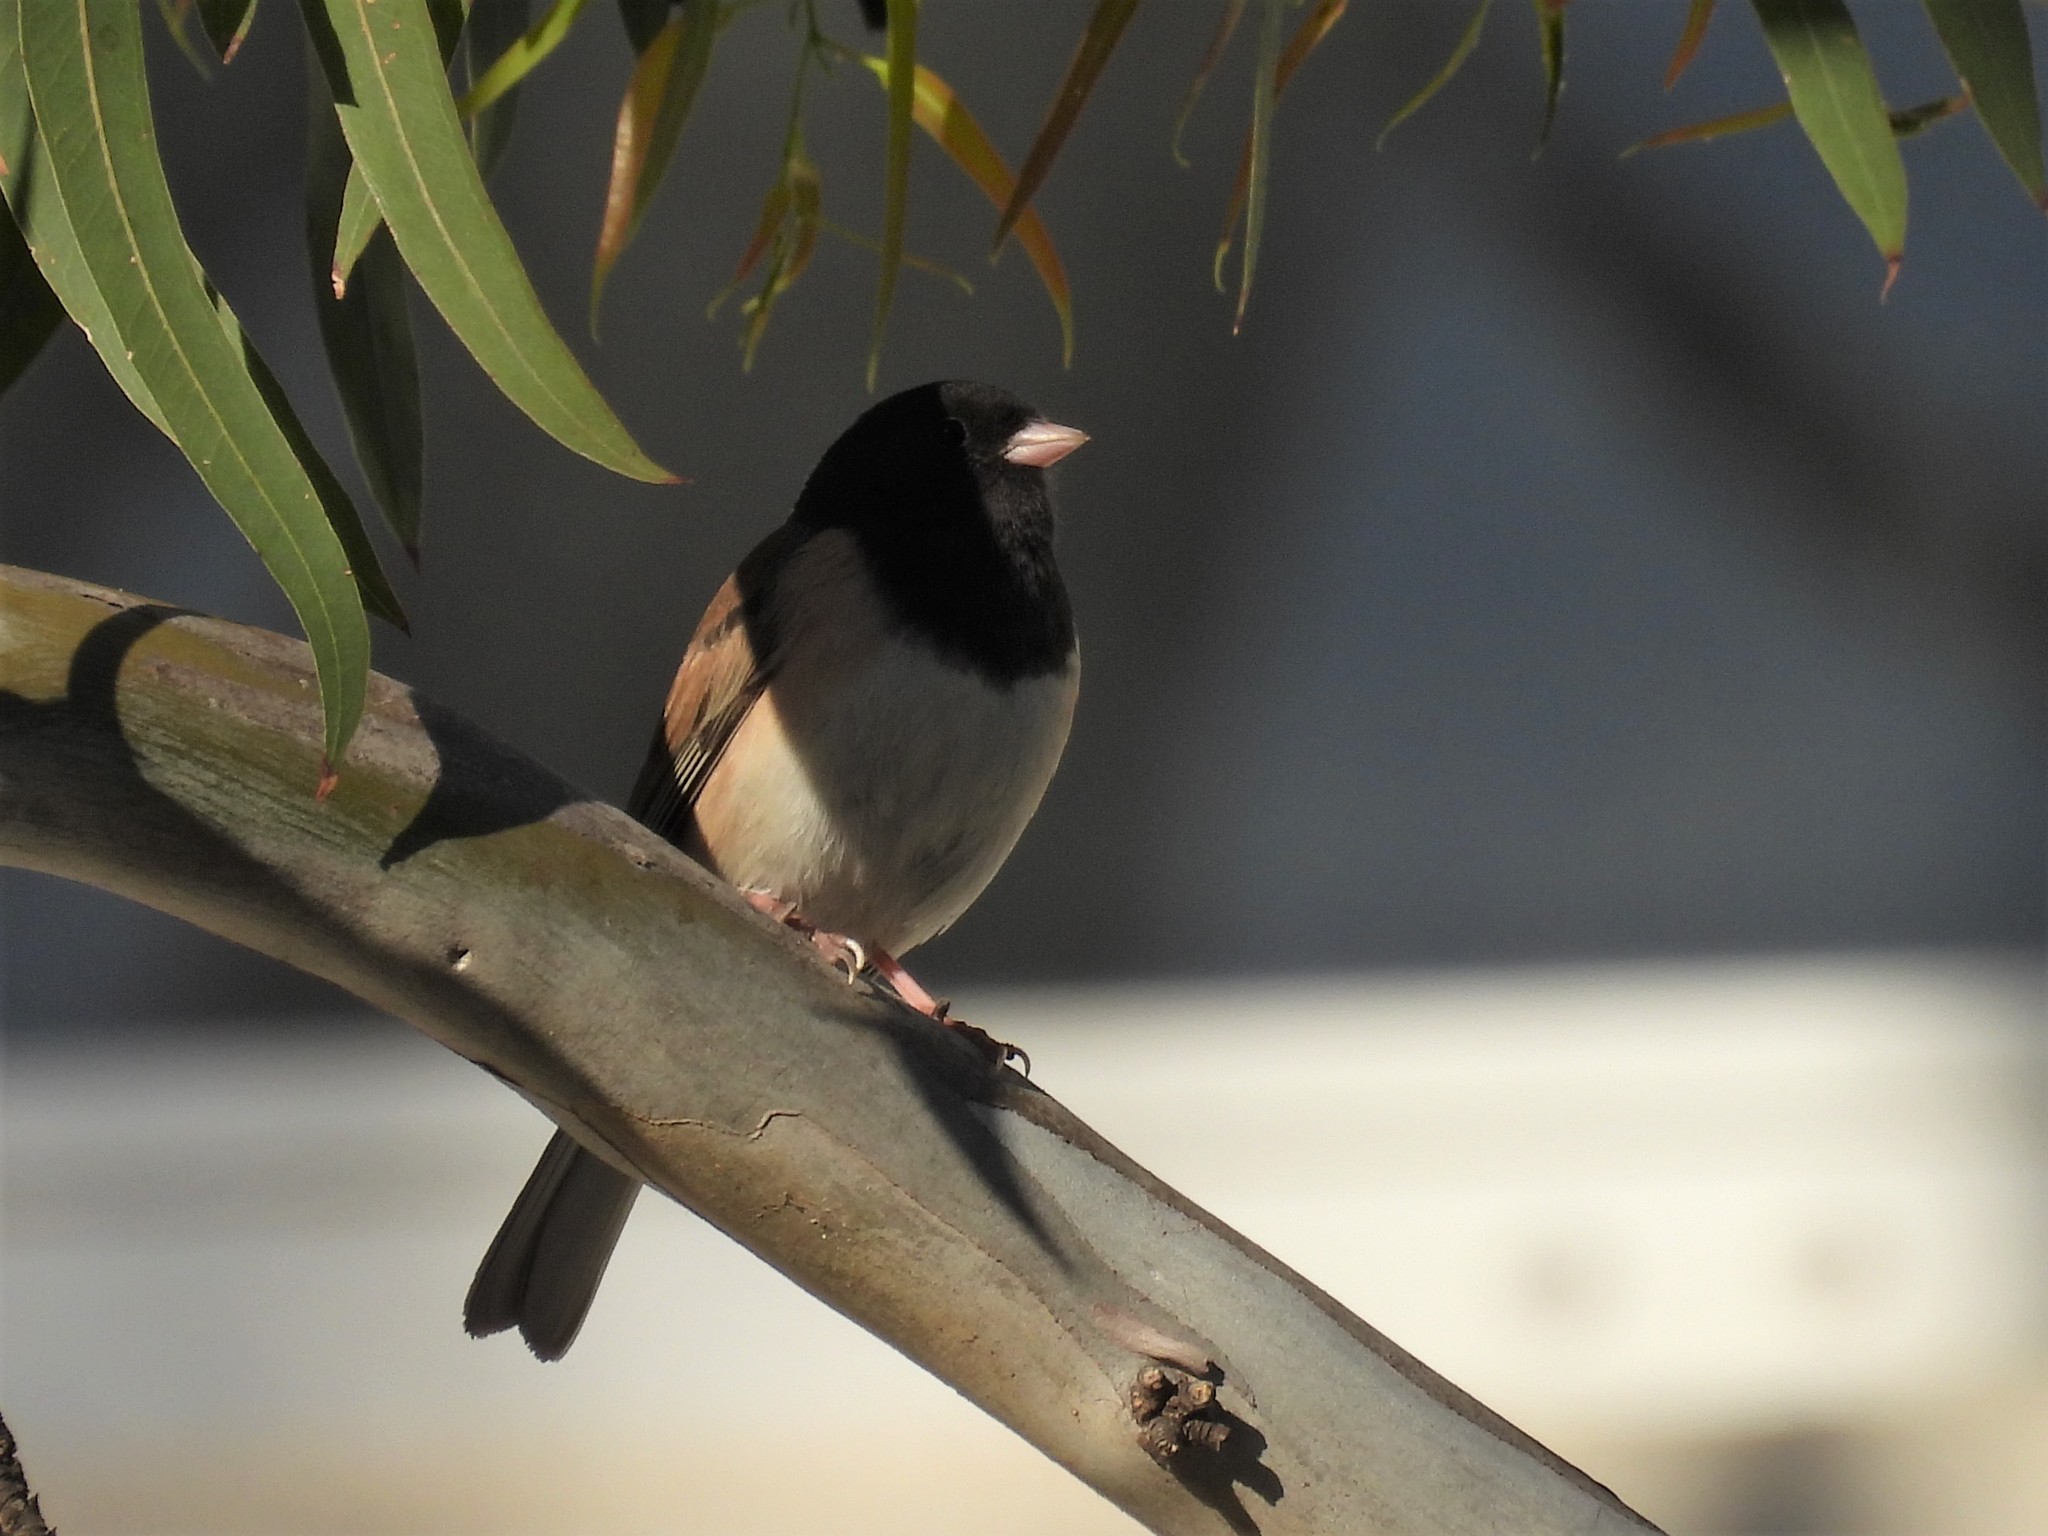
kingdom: Animalia
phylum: Chordata
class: Aves
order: Passeriformes
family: Passerellidae
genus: Junco
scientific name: Junco hyemalis
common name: Dark-eyed junco
